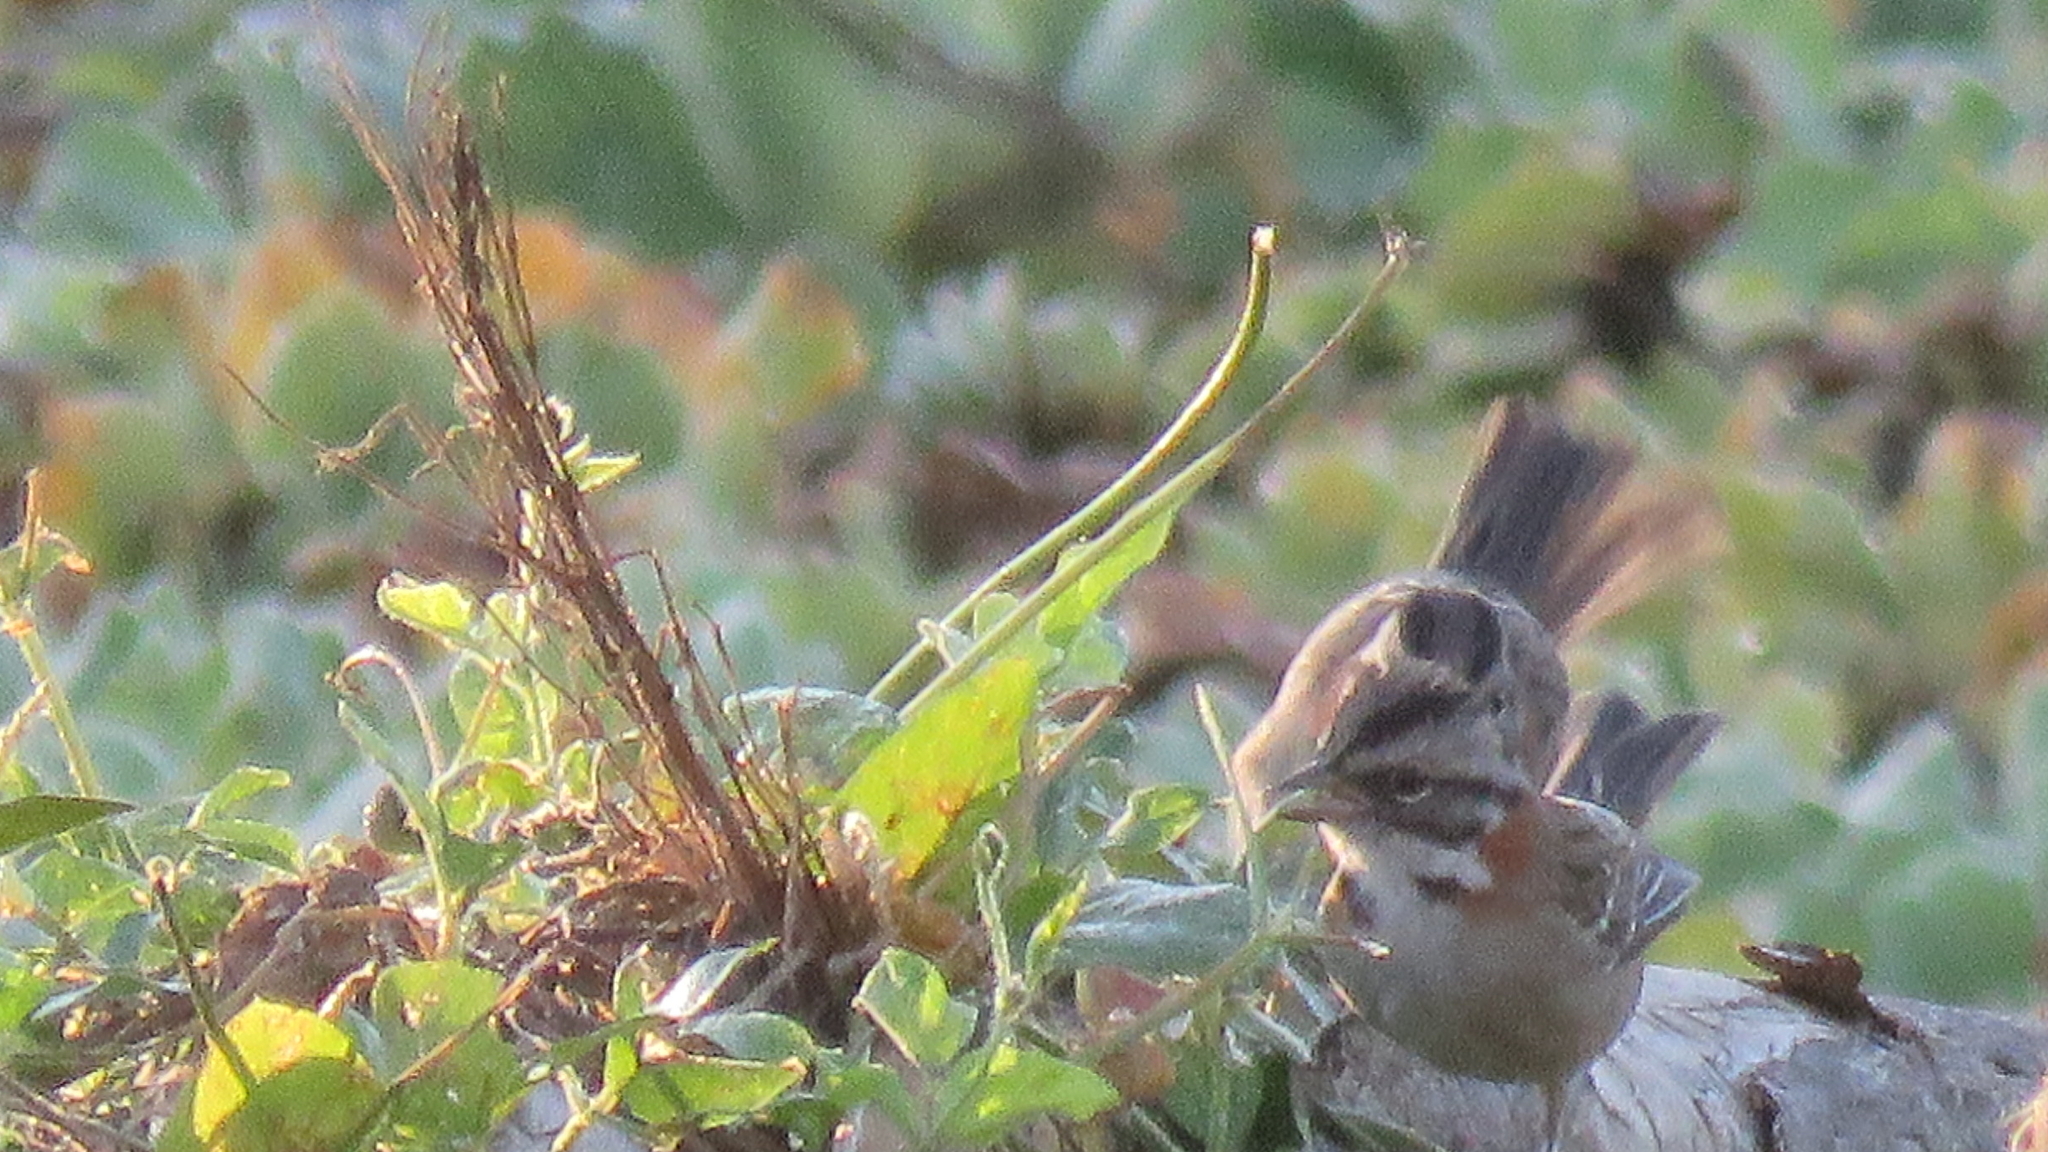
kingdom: Animalia
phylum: Chordata
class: Aves
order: Passeriformes
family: Passerellidae
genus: Zonotrichia
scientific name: Zonotrichia capensis
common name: Rufous-collared sparrow
